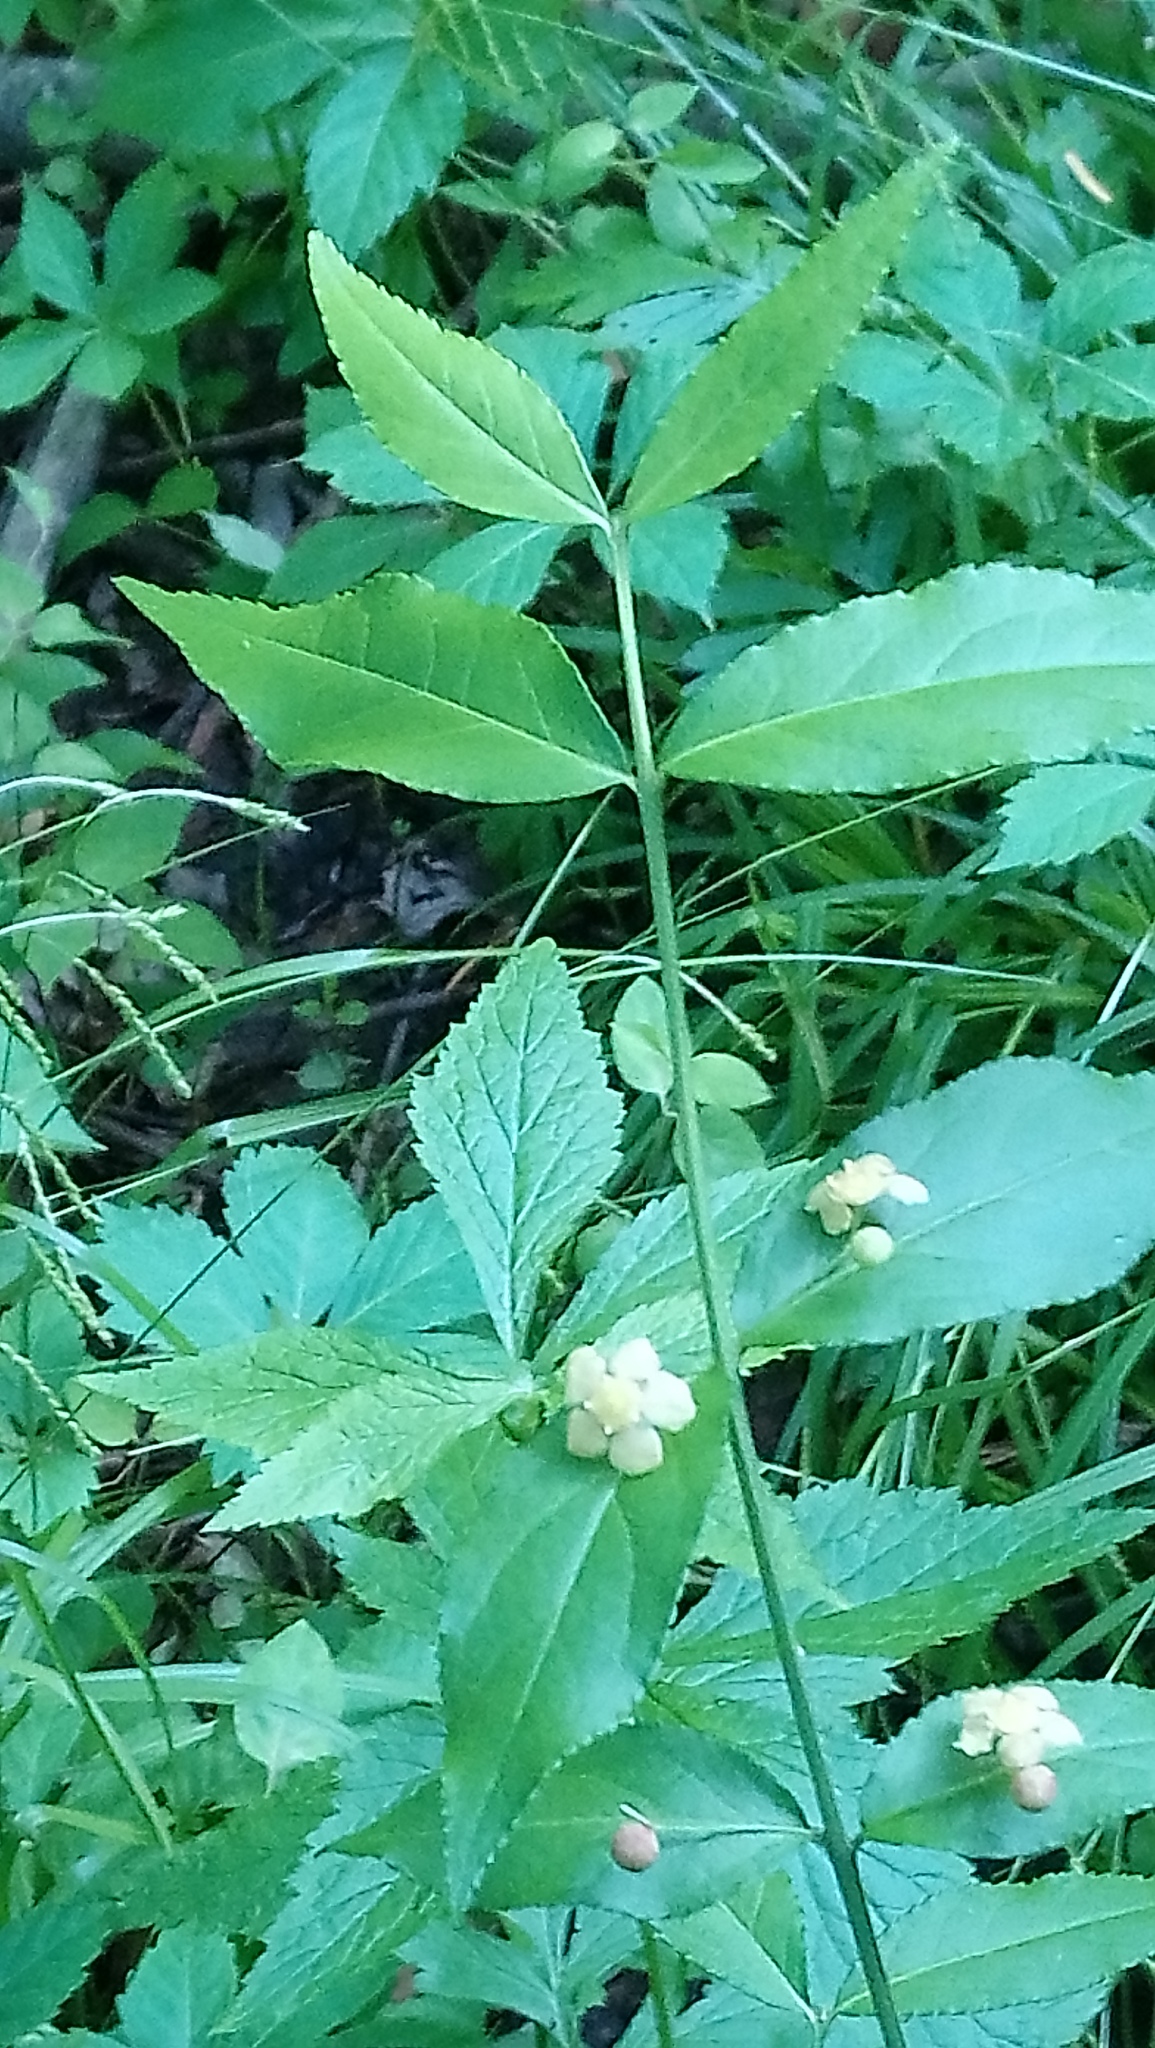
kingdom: Plantae
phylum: Tracheophyta
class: Magnoliopsida
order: Celastrales
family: Celastraceae
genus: Euonymus
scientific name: Euonymus americanus
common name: Bursting-heart
